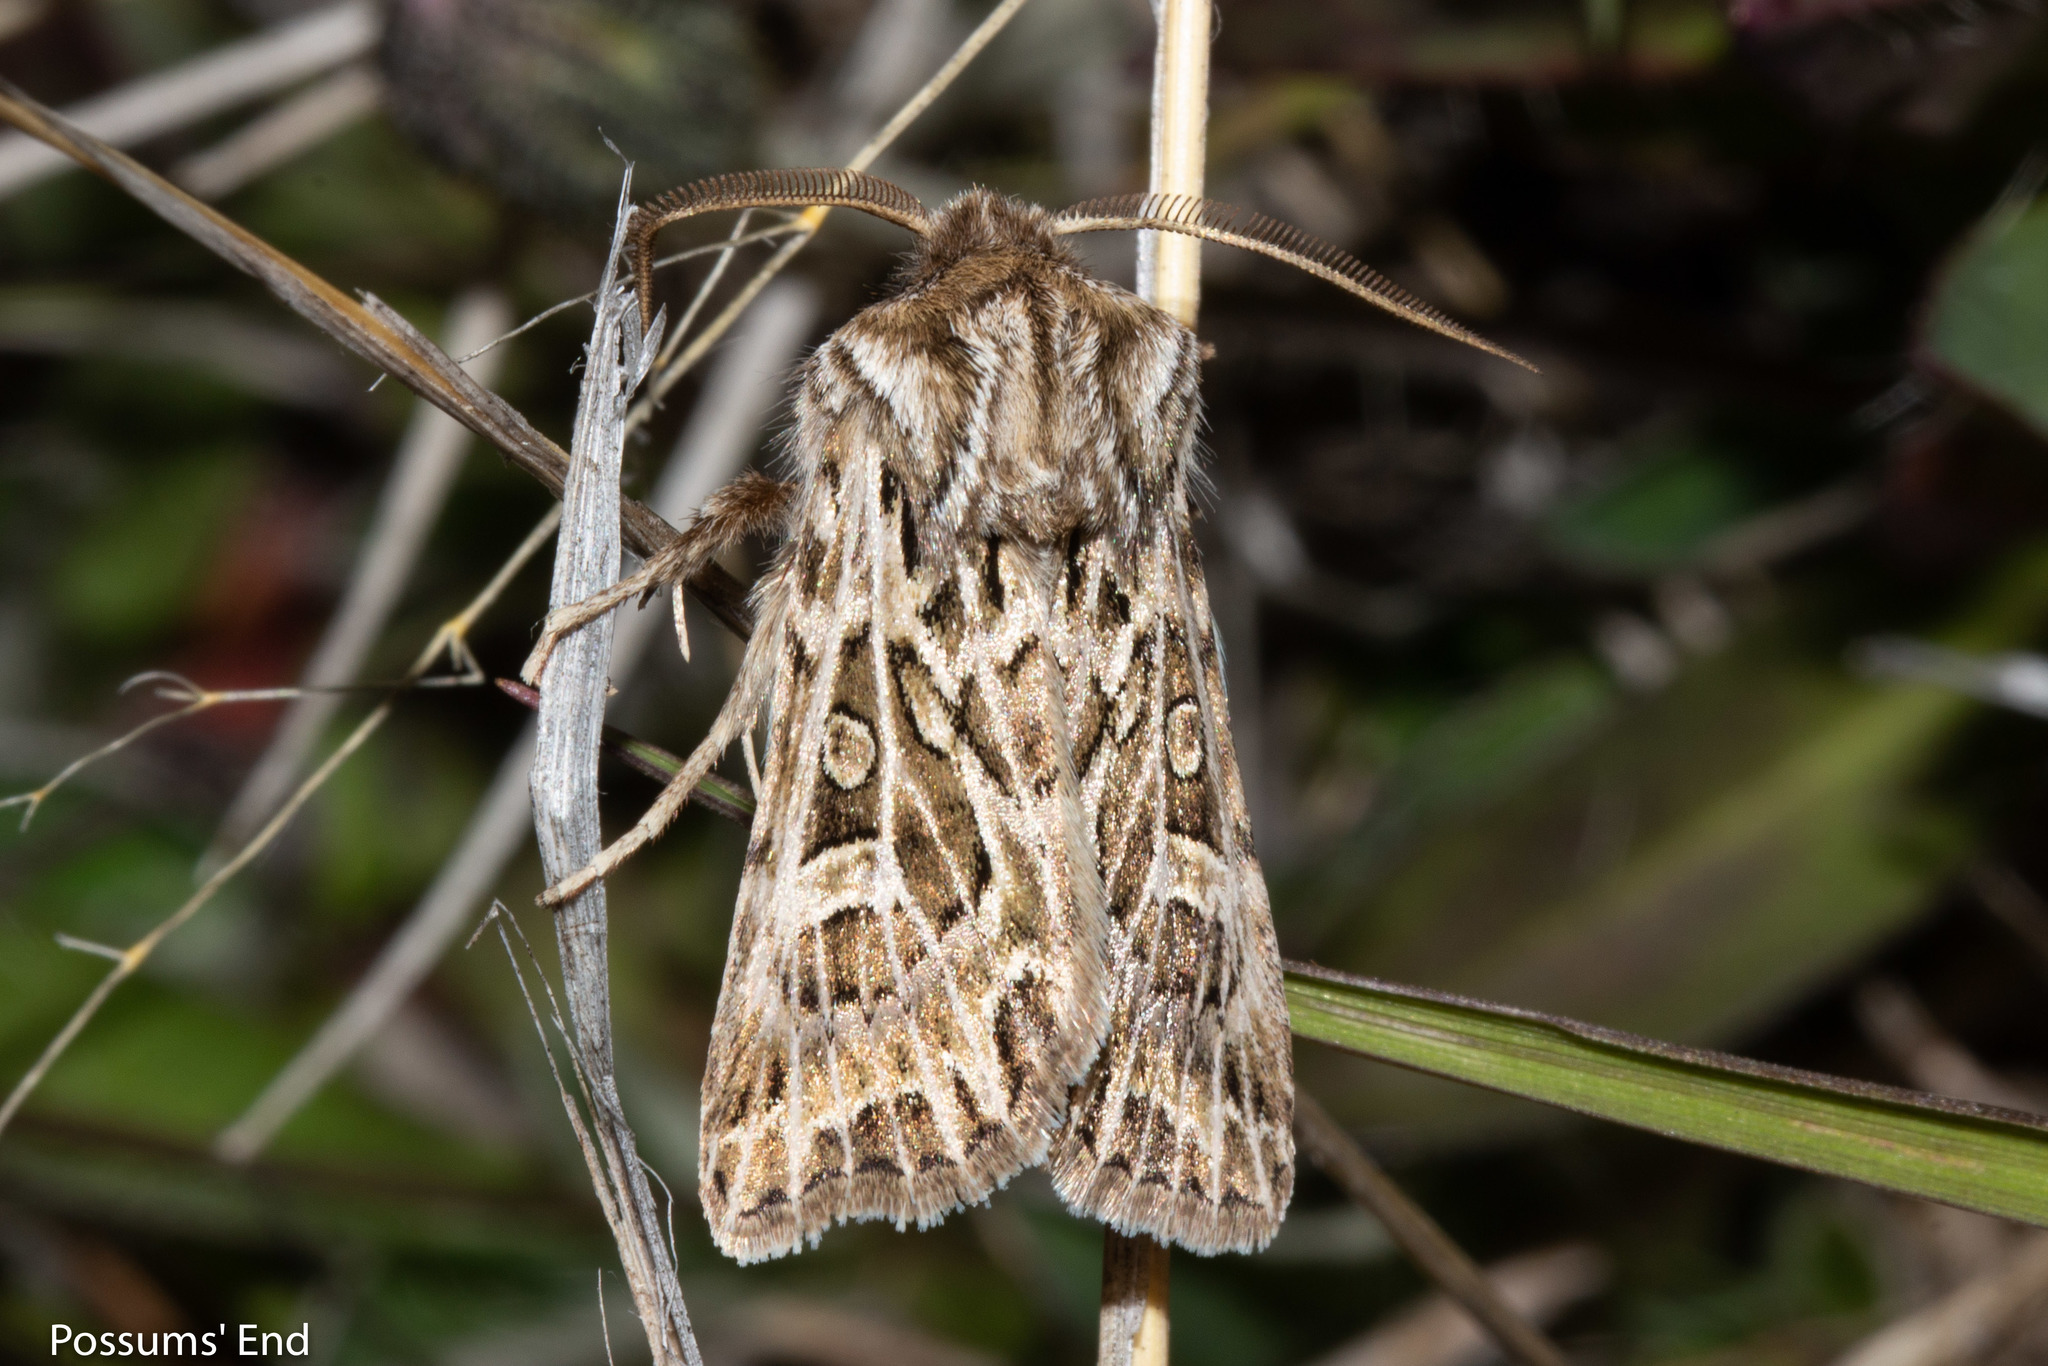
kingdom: Animalia
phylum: Arthropoda
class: Insecta
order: Lepidoptera
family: Noctuidae
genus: Ichneutica
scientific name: Ichneutica
